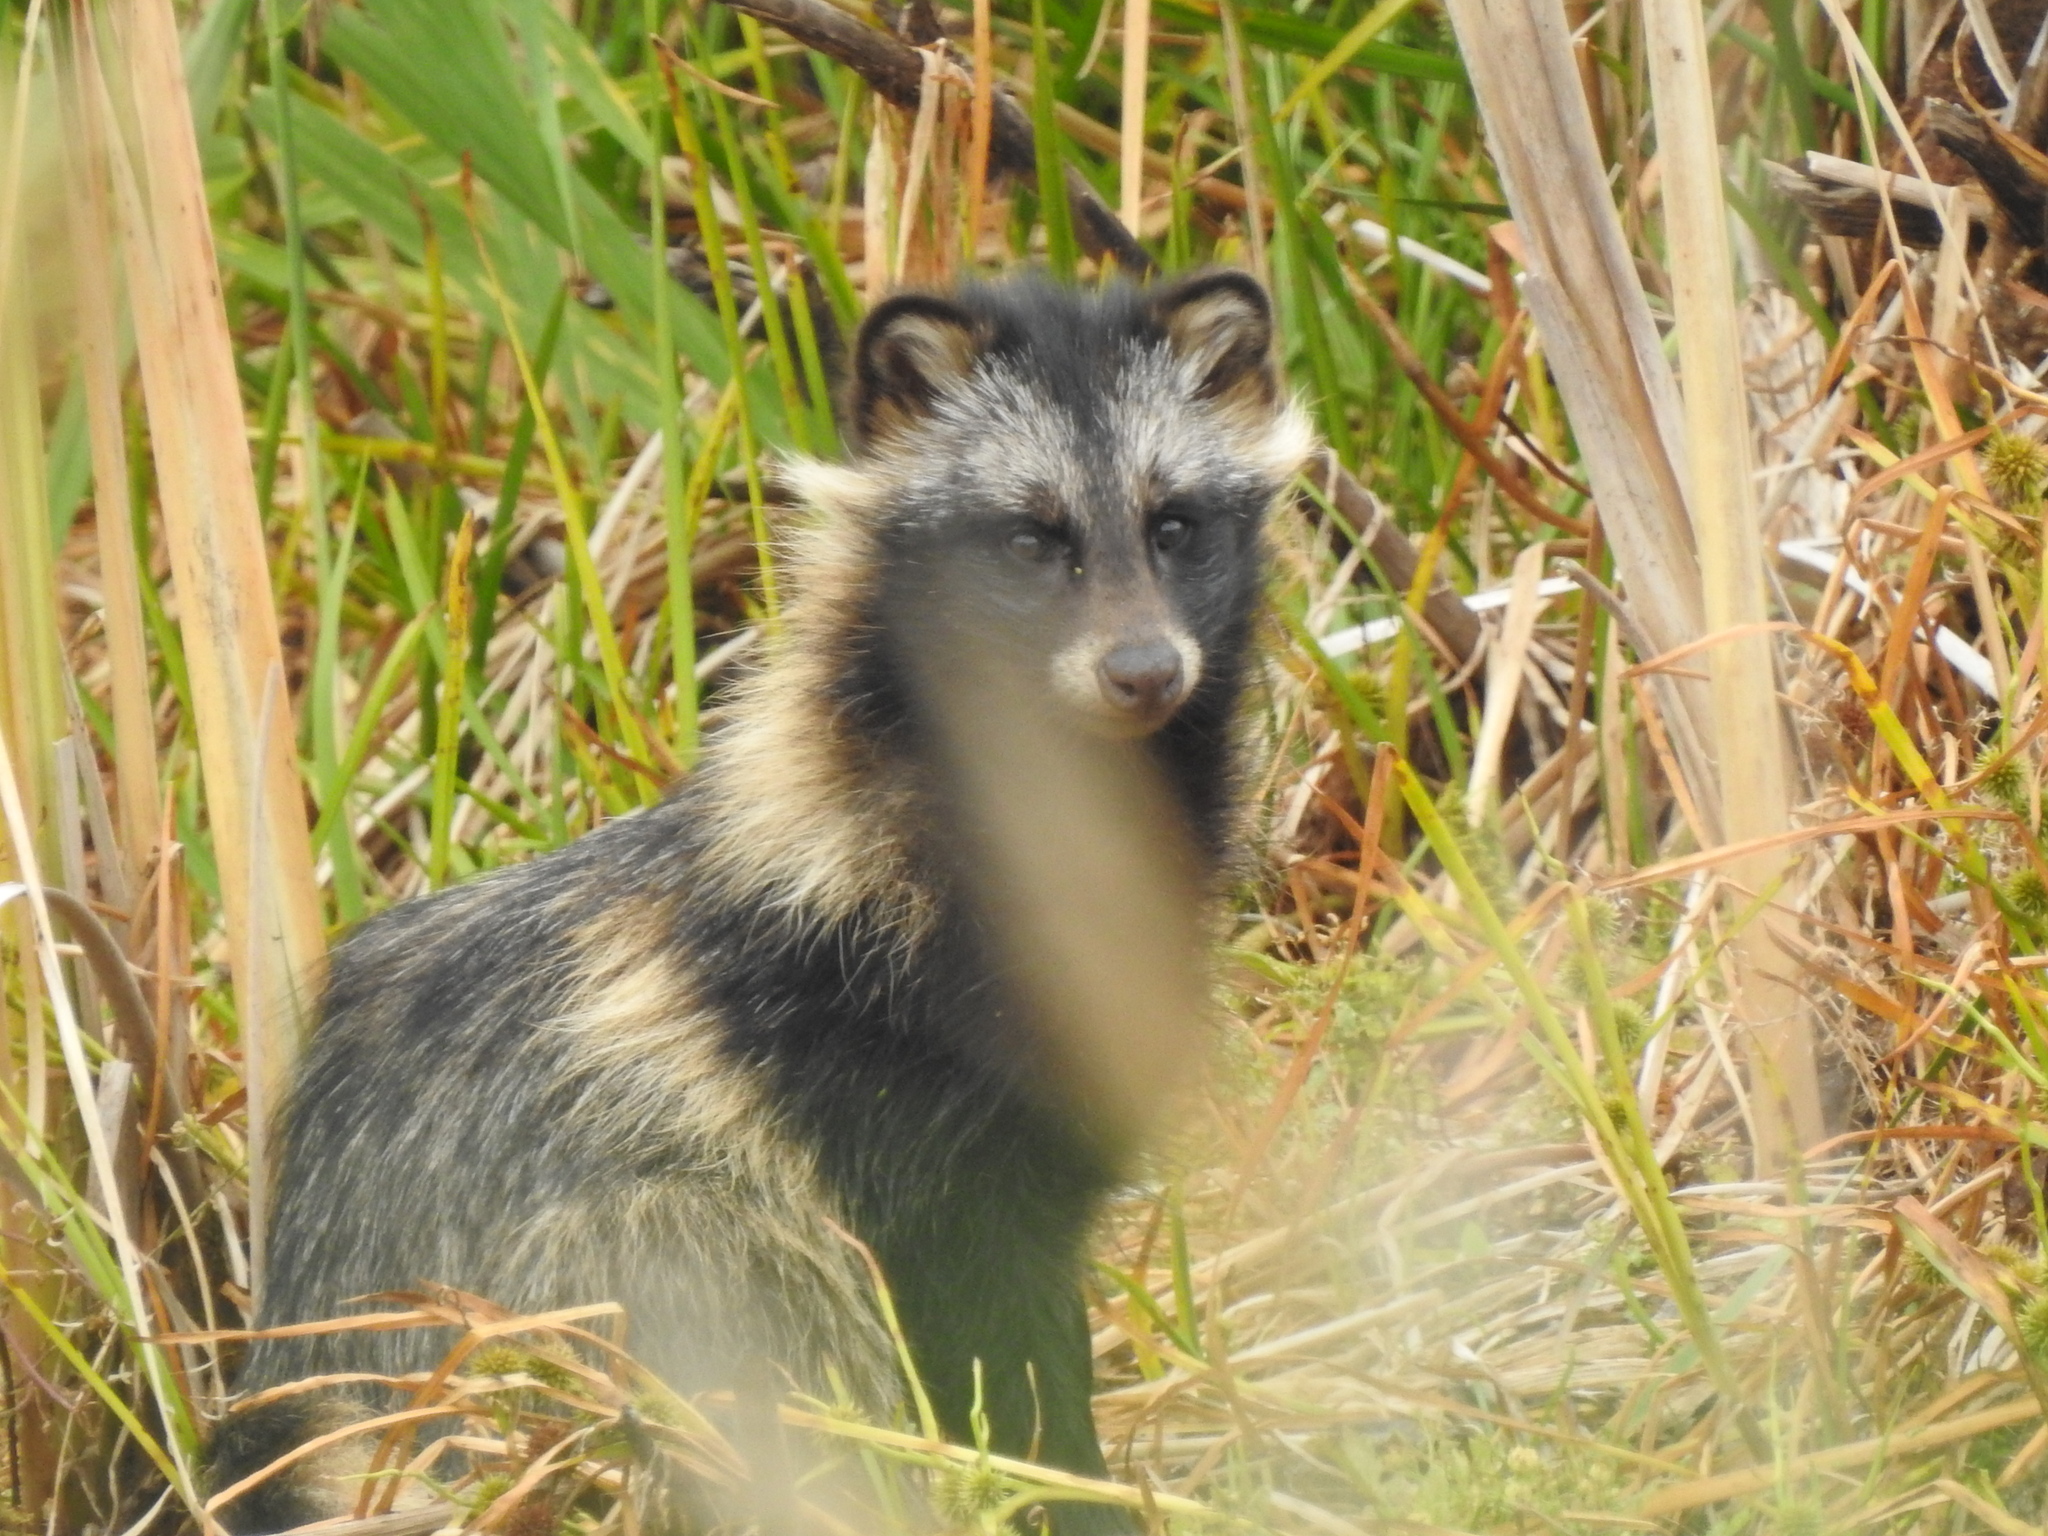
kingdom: Animalia
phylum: Chordata
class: Mammalia
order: Carnivora
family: Canidae
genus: Nyctereutes
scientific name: Nyctereutes procyonoides
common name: Raccoon dog
